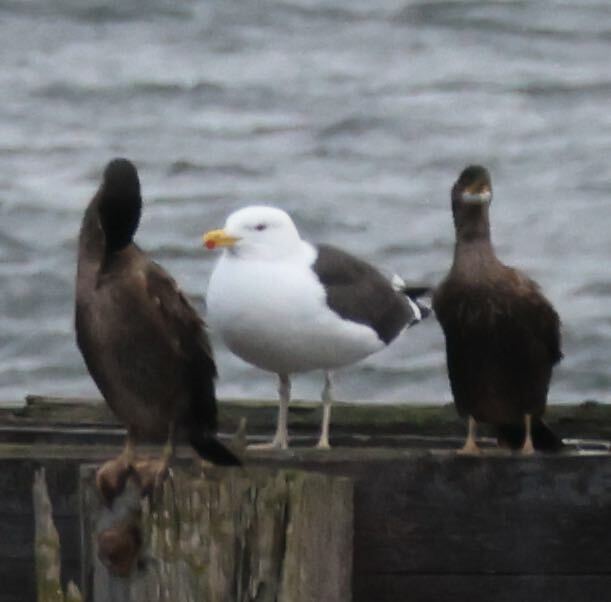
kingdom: Animalia
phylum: Chordata
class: Aves
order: Charadriiformes
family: Laridae
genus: Larus
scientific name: Larus marinus
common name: Great black-backed gull
